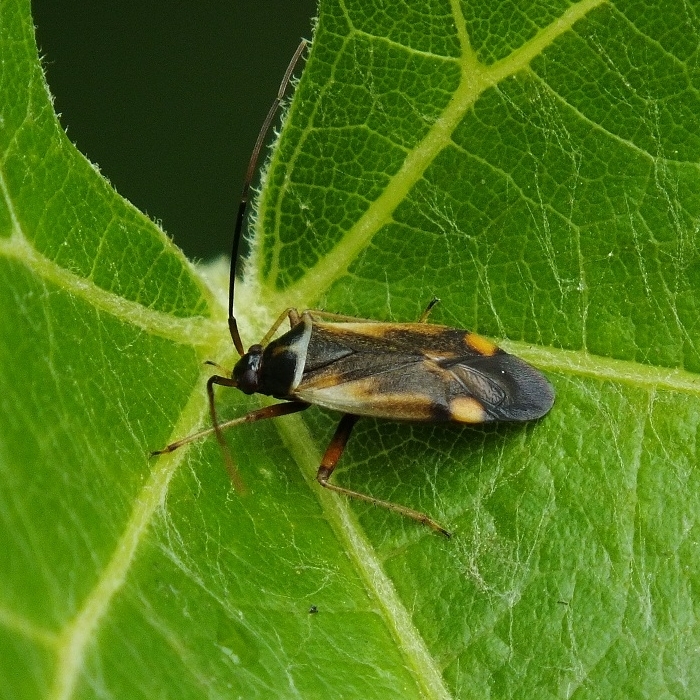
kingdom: Animalia
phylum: Arthropoda
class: Insecta
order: Hemiptera
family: Miridae
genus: Adelphocoris
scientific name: Adelphocoris seticornis
